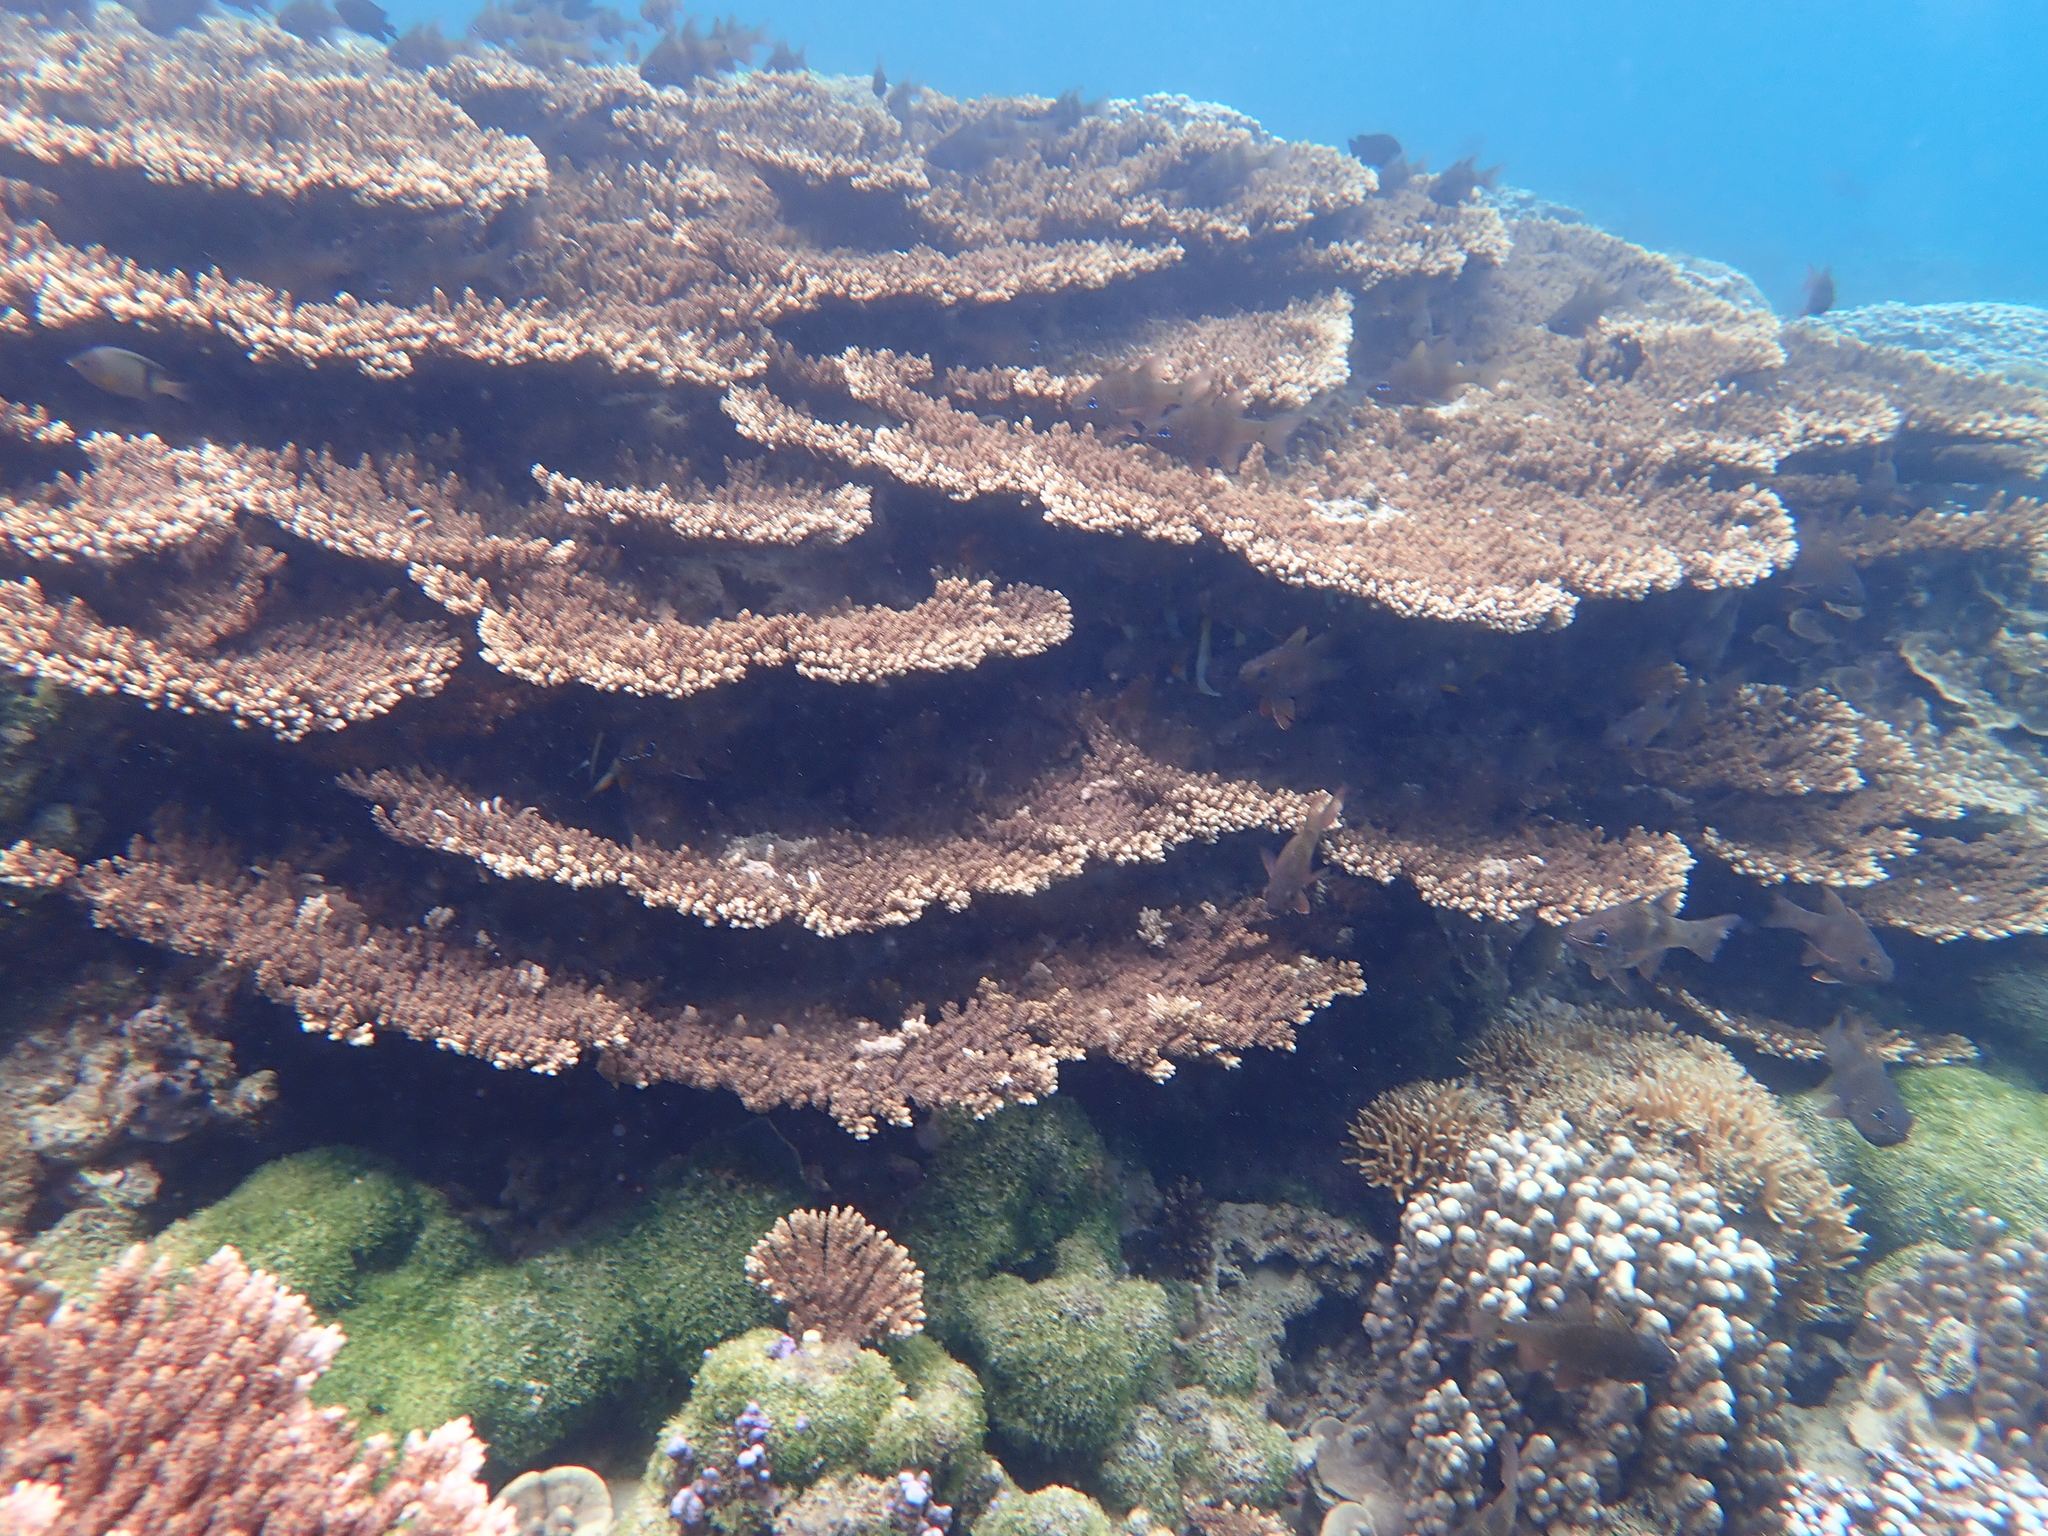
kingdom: Animalia
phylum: Cnidaria
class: Anthozoa
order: Scleractinia
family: Acroporidae
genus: Acropora
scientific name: Acropora solitaryensis
